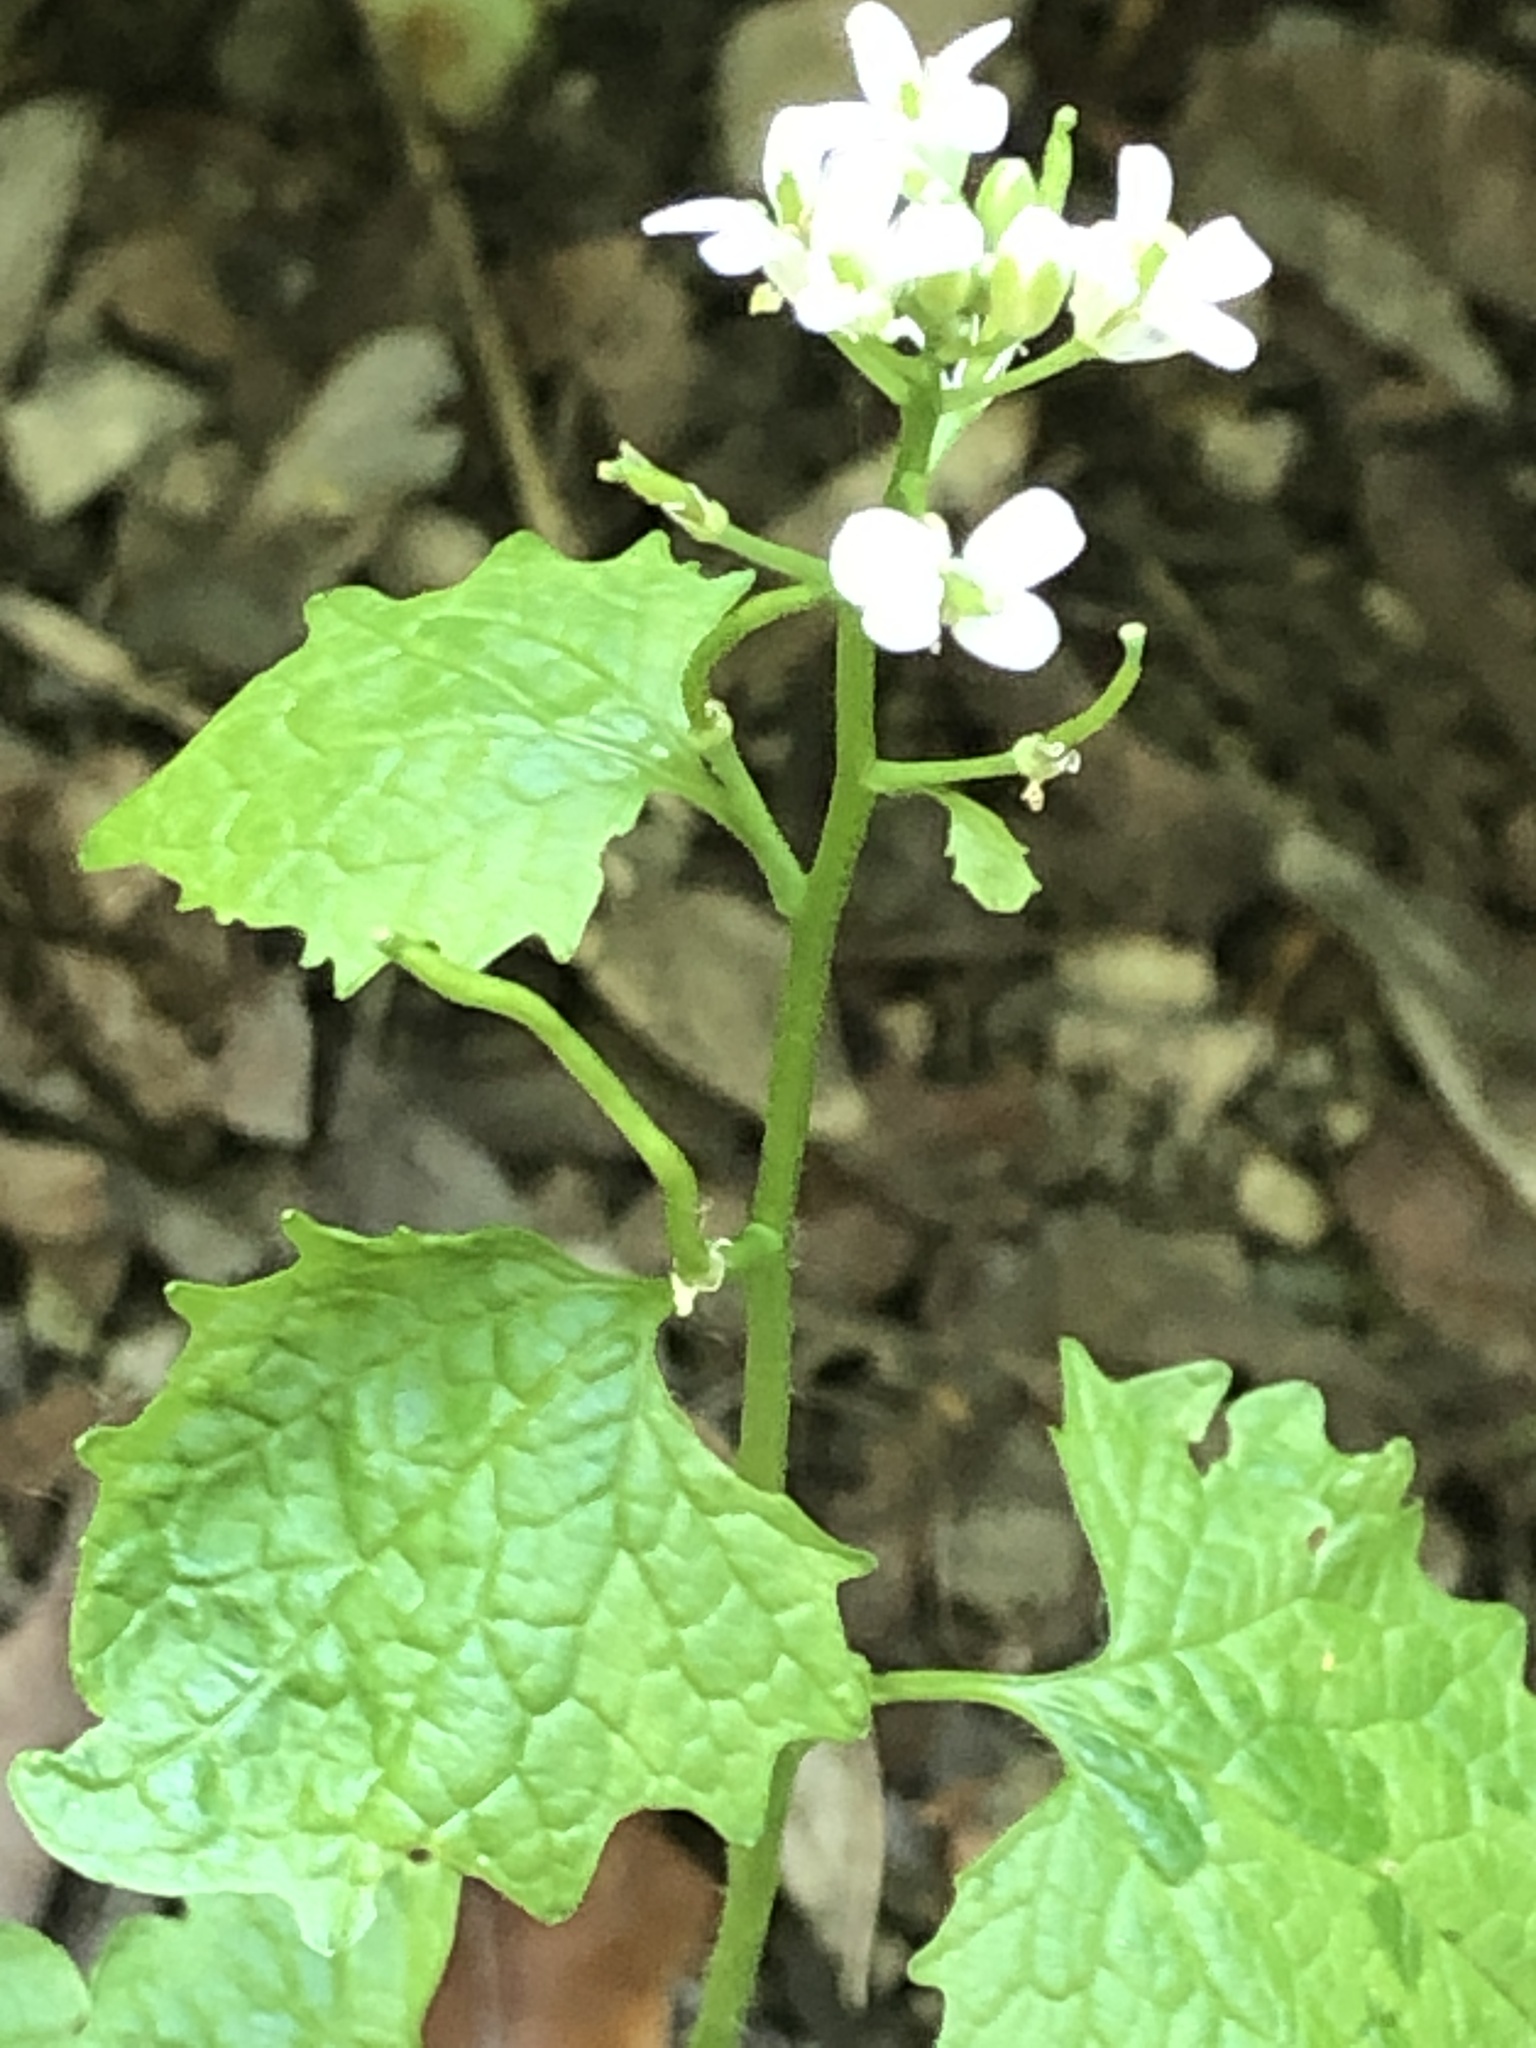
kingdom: Plantae
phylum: Tracheophyta
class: Magnoliopsida
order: Brassicales
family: Brassicaceae
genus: Alliaria
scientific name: Alliaria petiolata
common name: Garlic mustard
